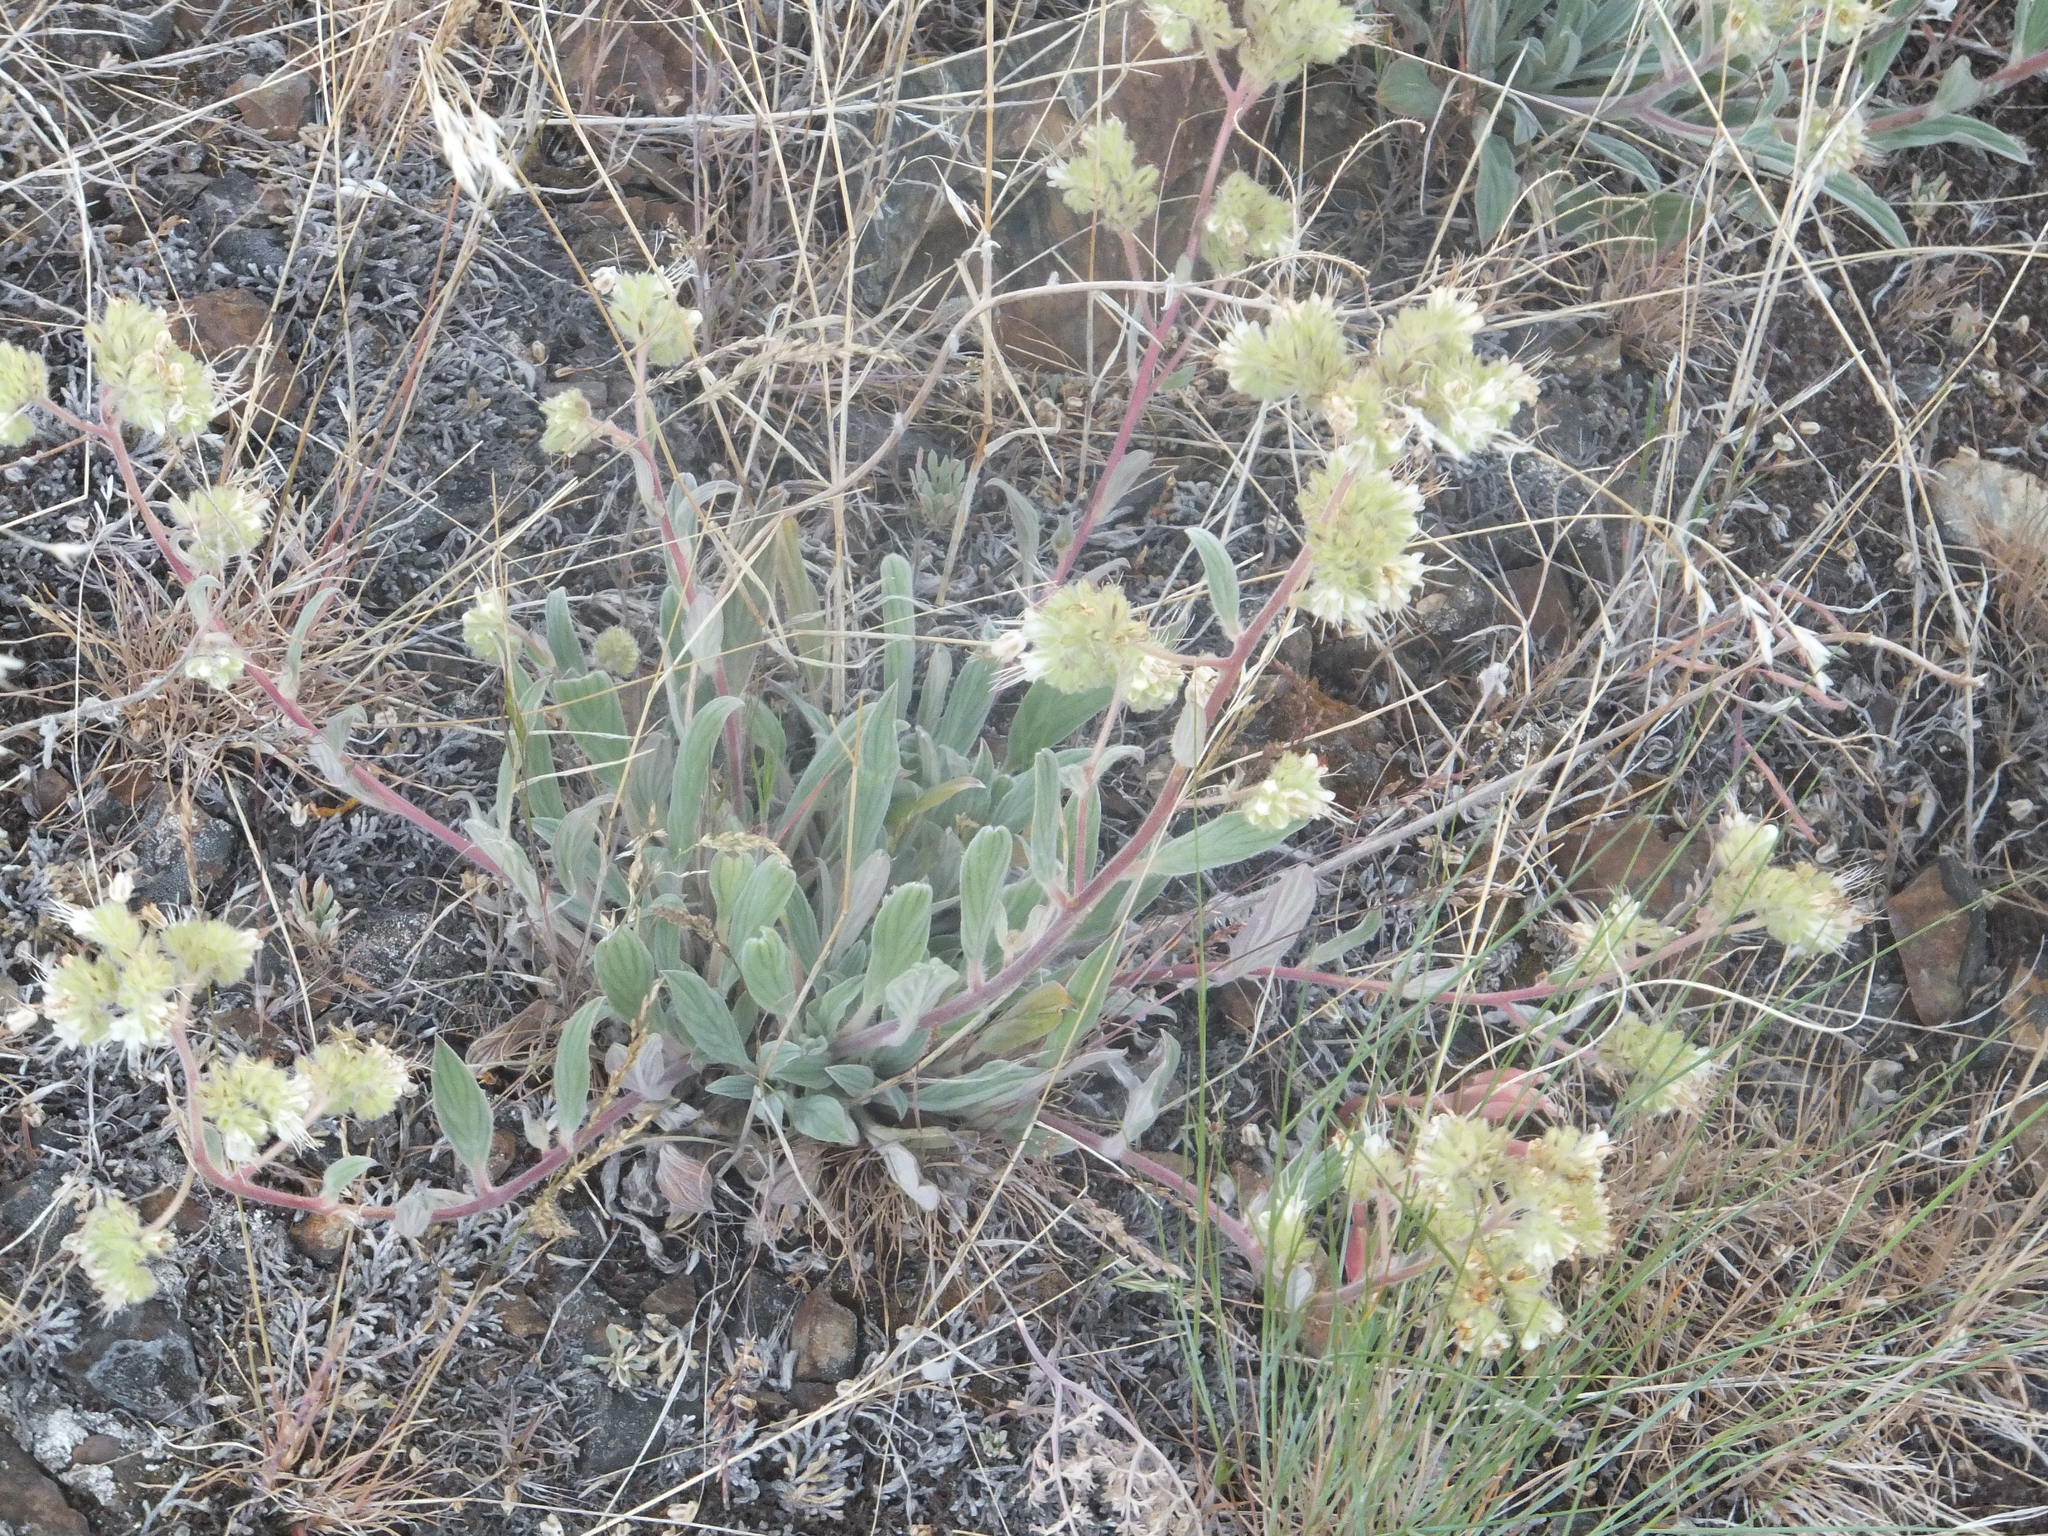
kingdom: Plantae
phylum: Tracheophyta
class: Magnoliopsida
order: Boraginales
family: Hydrophyllaceae
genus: Phacelia
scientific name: Phacelia hastata
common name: Silver-leaved phacelia
